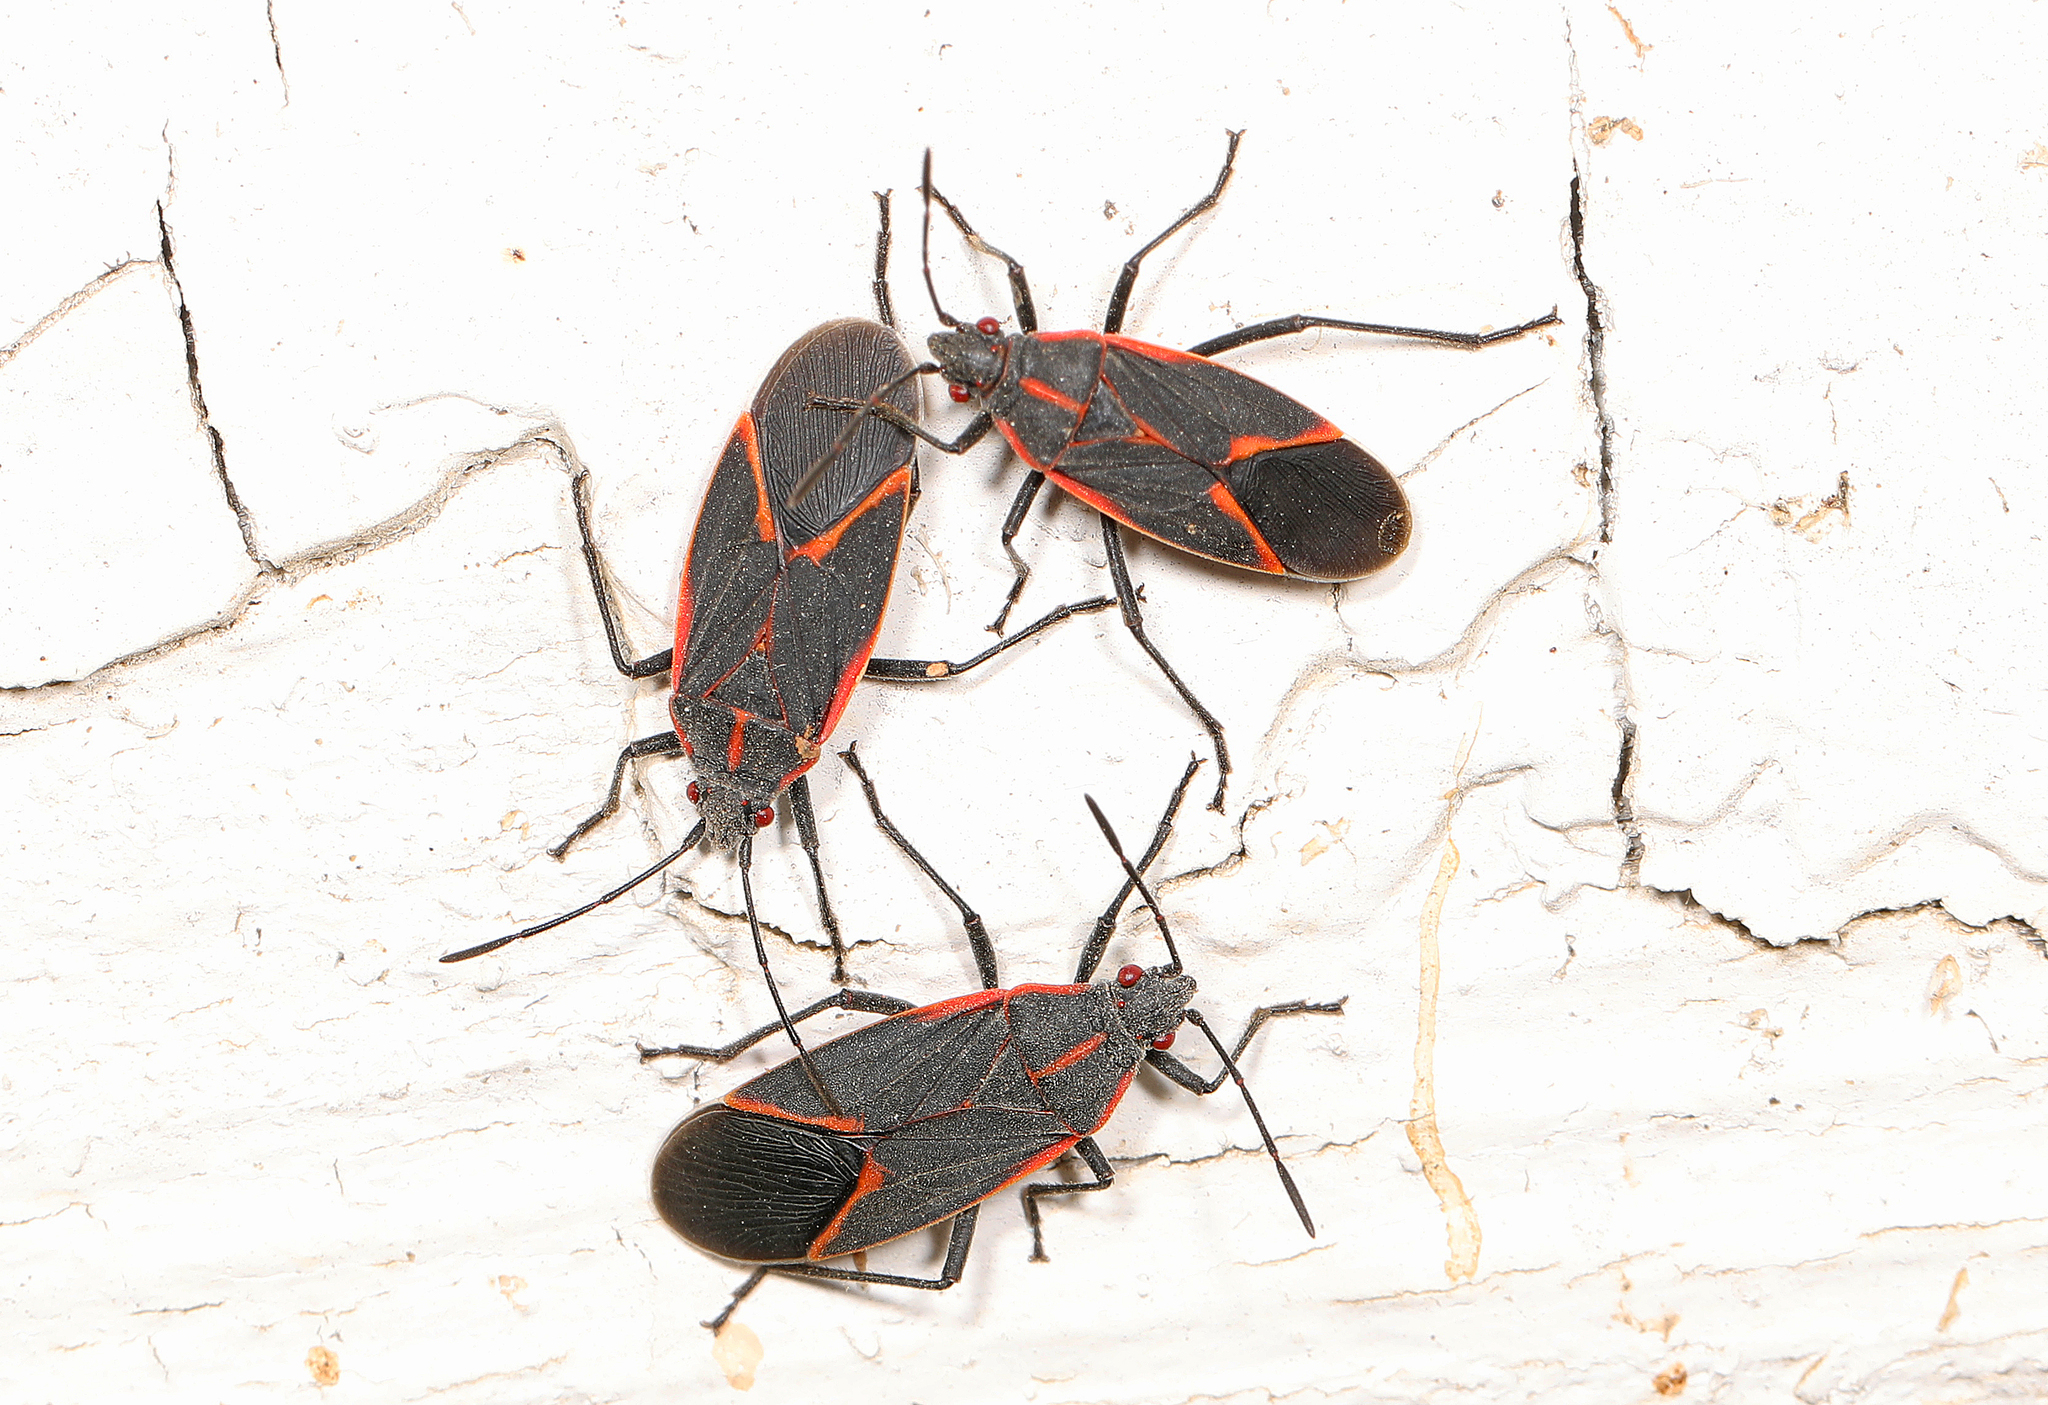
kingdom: Animalia
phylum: Arthropoda
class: Insecta
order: Hemiptera
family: Rhopalidae
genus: Boisea
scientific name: Boisea trivittata
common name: Boxelder bug
